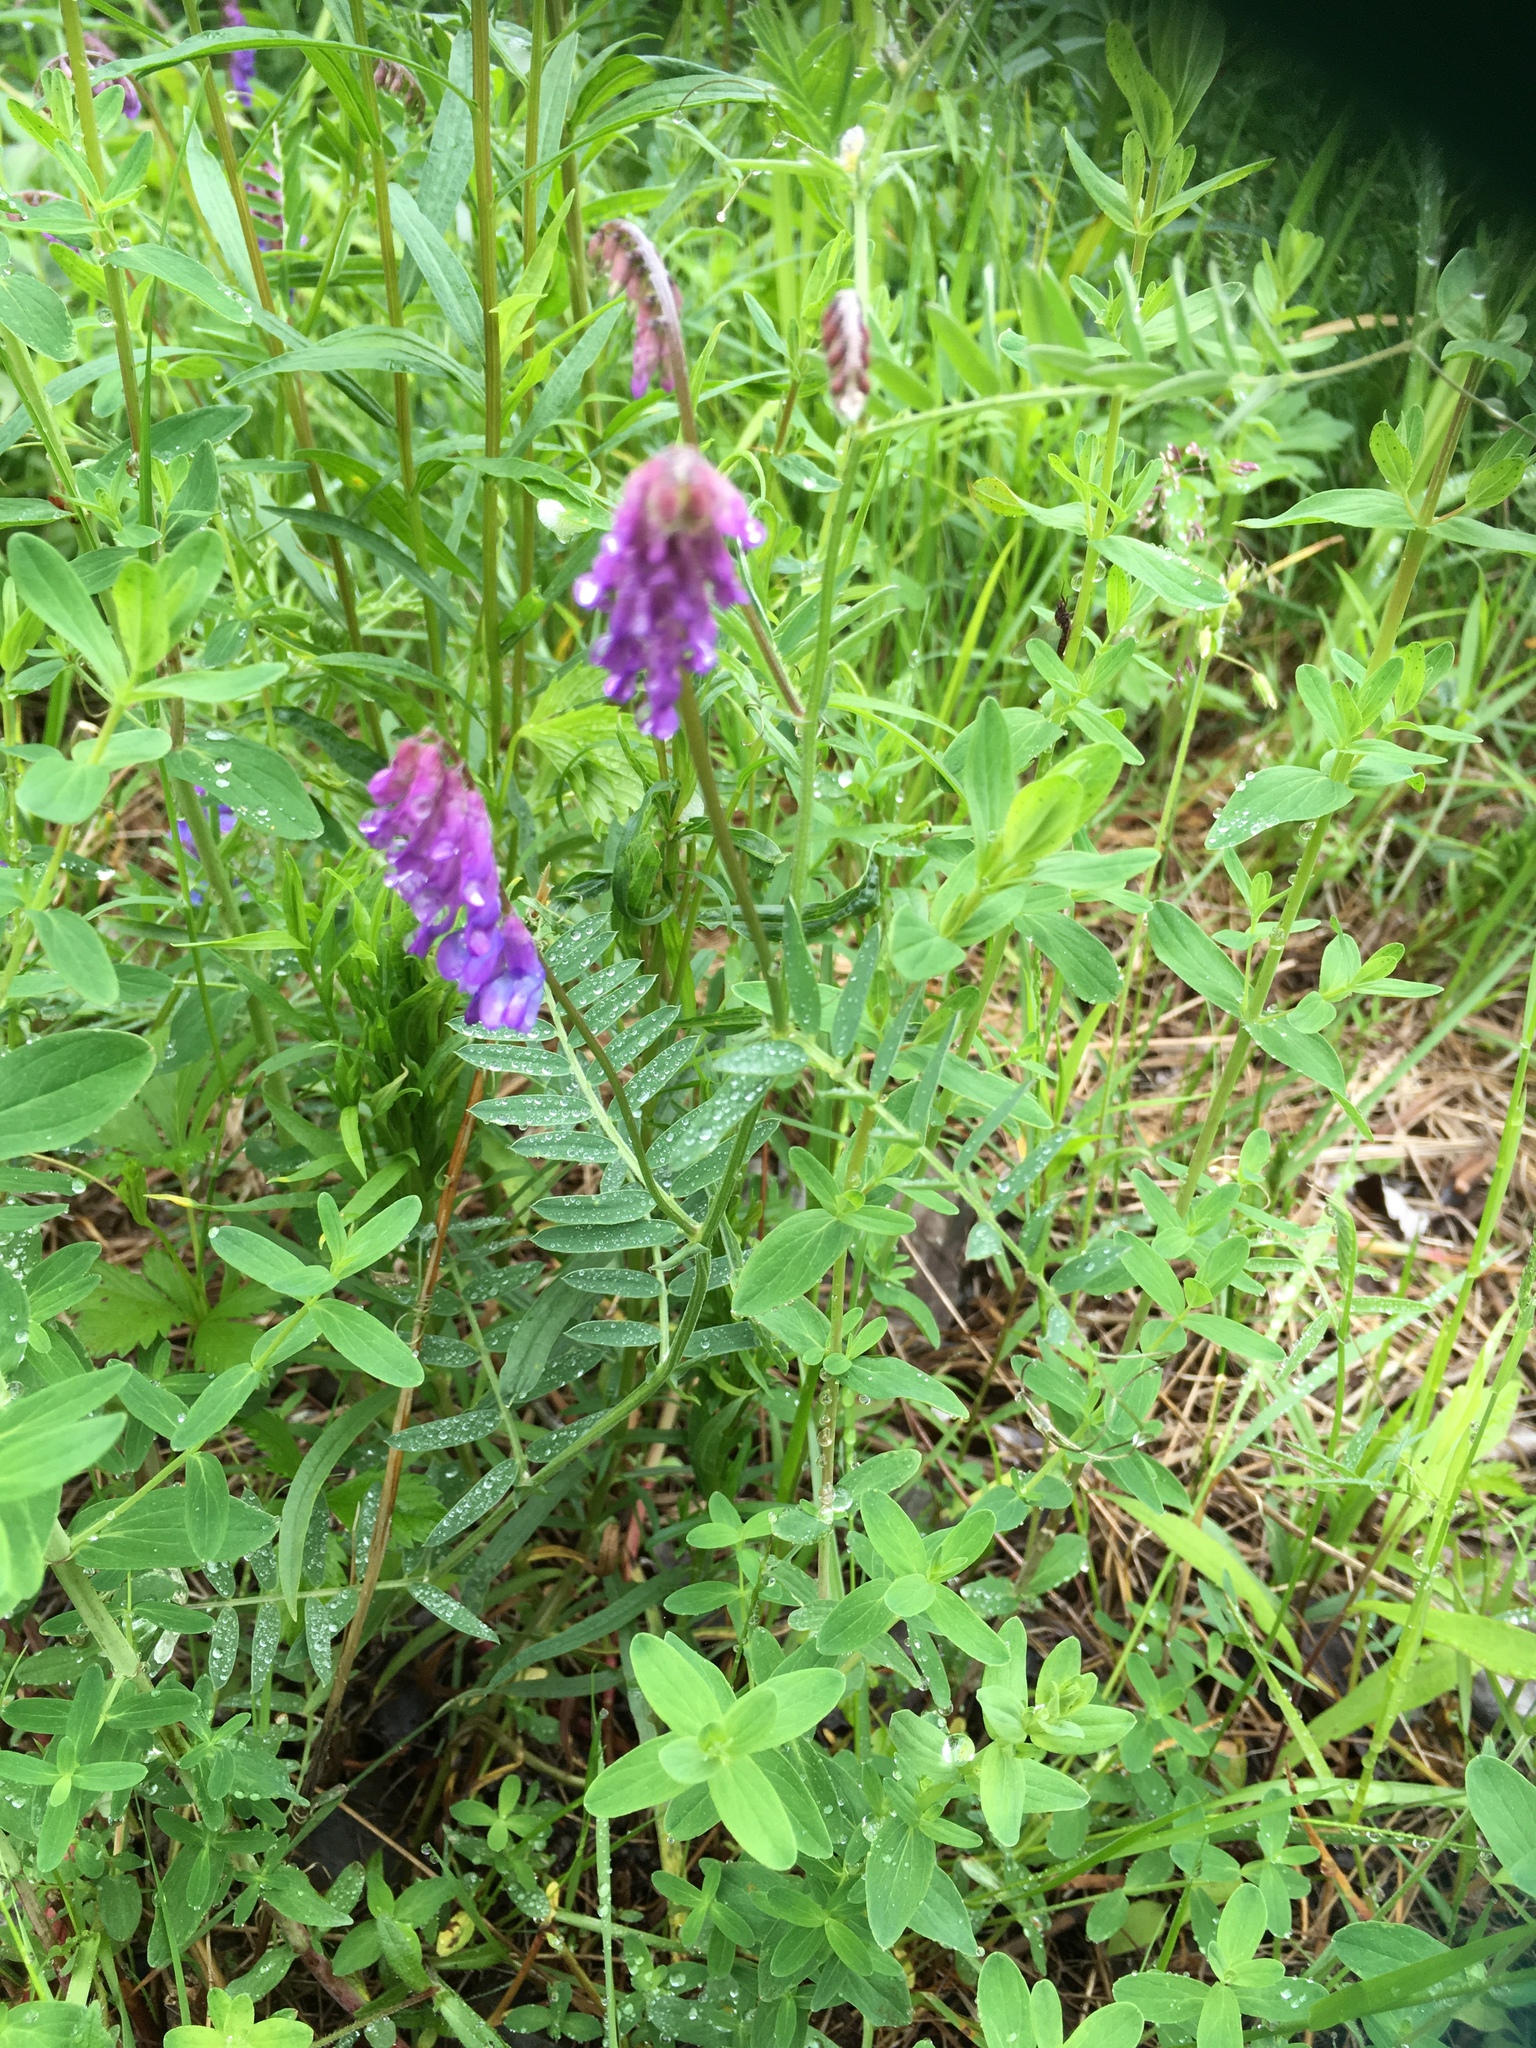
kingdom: Plantae
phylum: Tracheophyta
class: Magnoliopsida
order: Fabales
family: Fabaceae
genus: Vicia
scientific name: Vicia cracca
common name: Bird vetch
